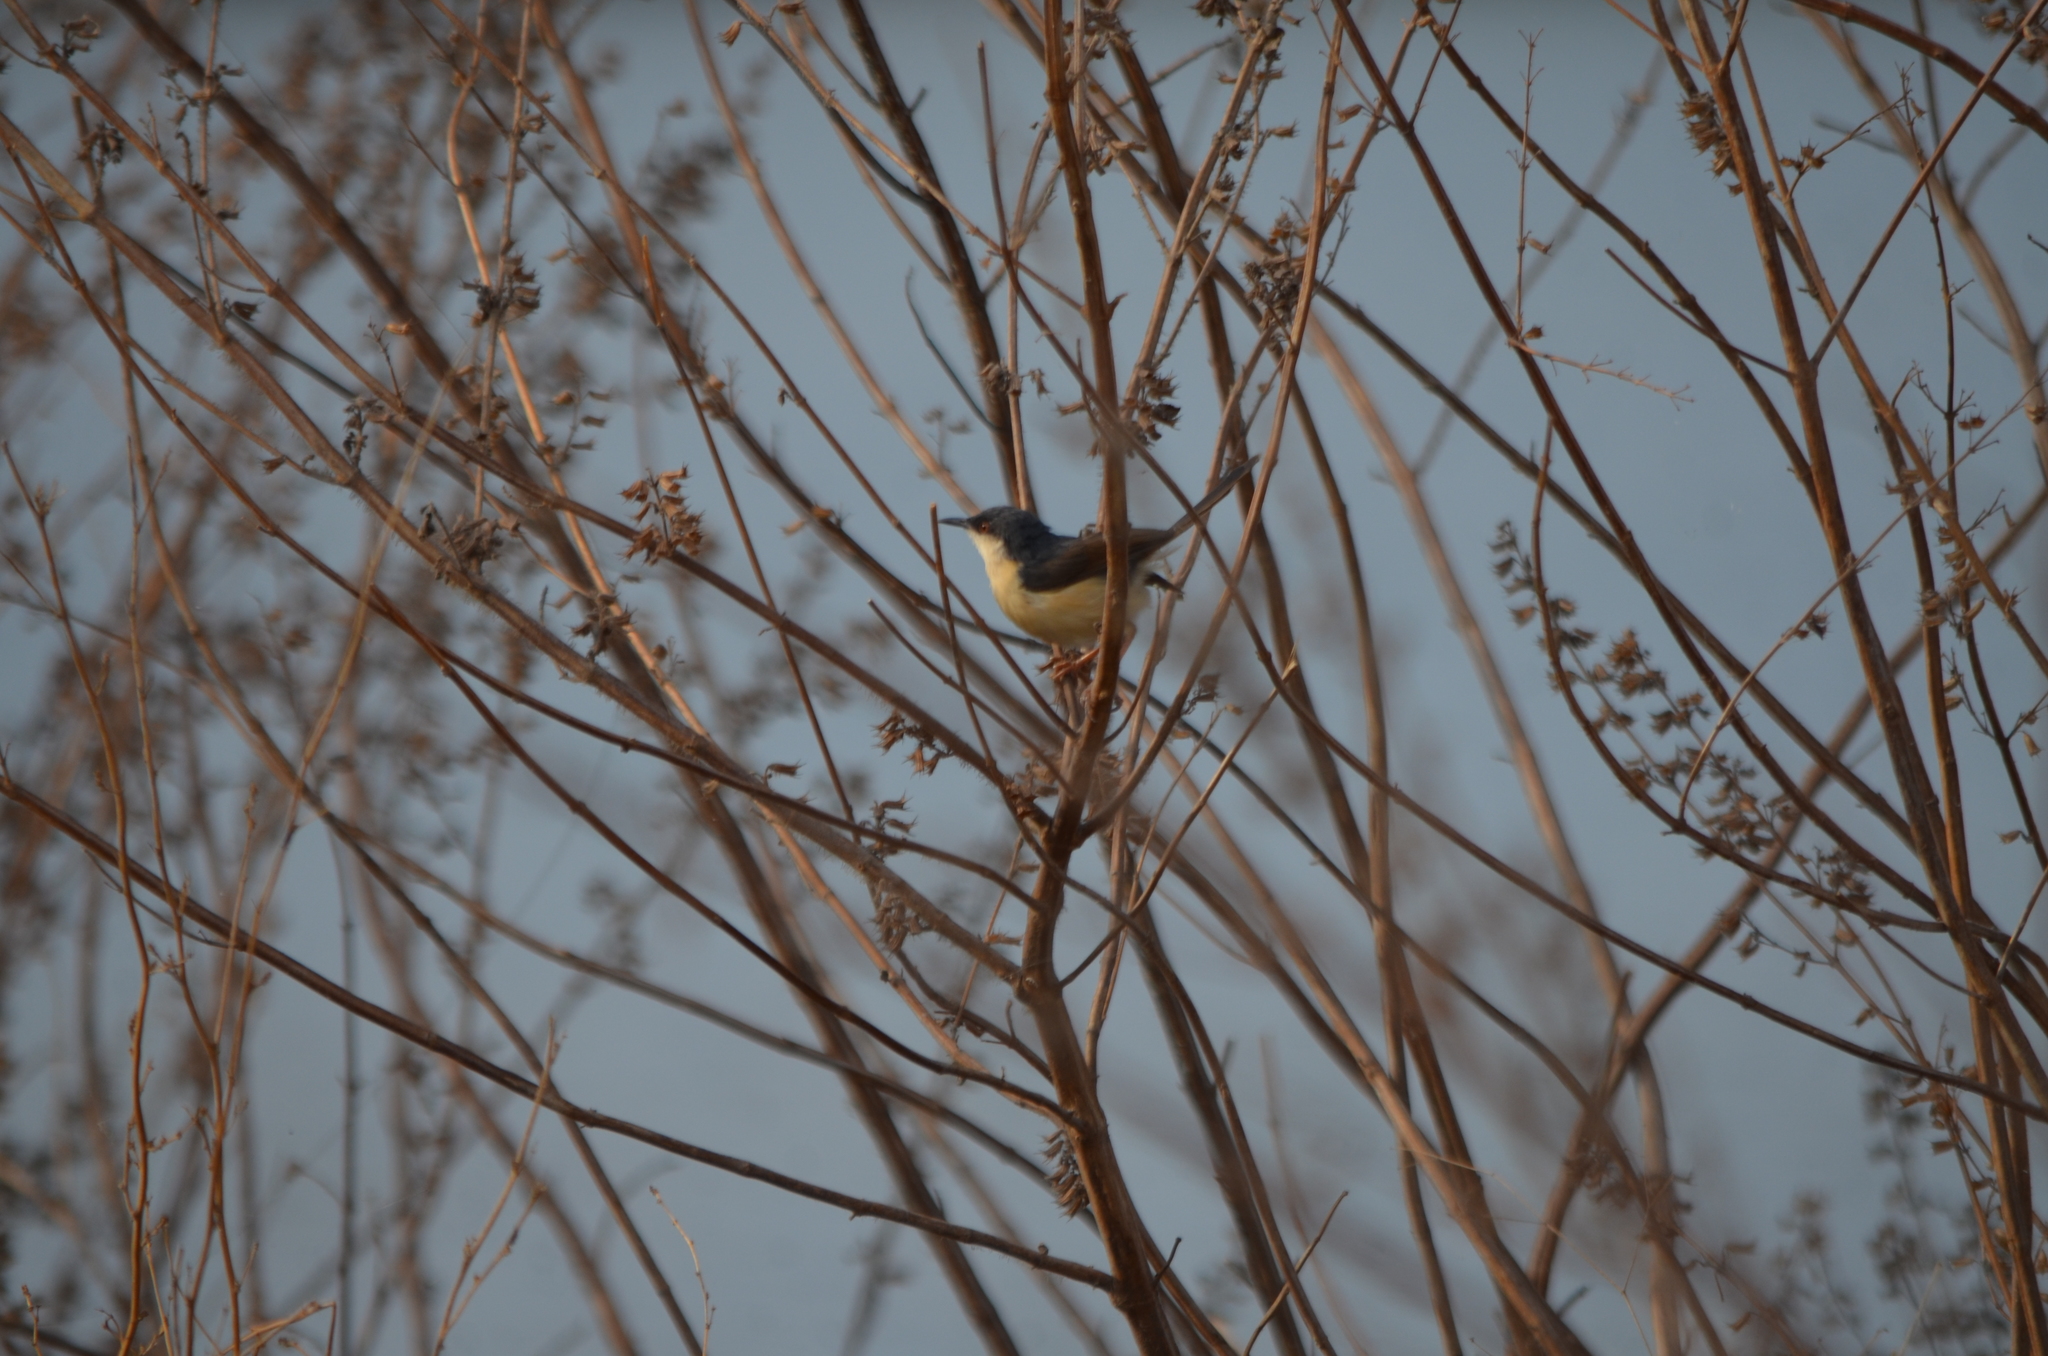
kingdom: Animalia
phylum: Chordata
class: Aves
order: Passeriformes
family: Cisticolidae
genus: Prinia
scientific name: Prinia socialis
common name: Ashy prinia
